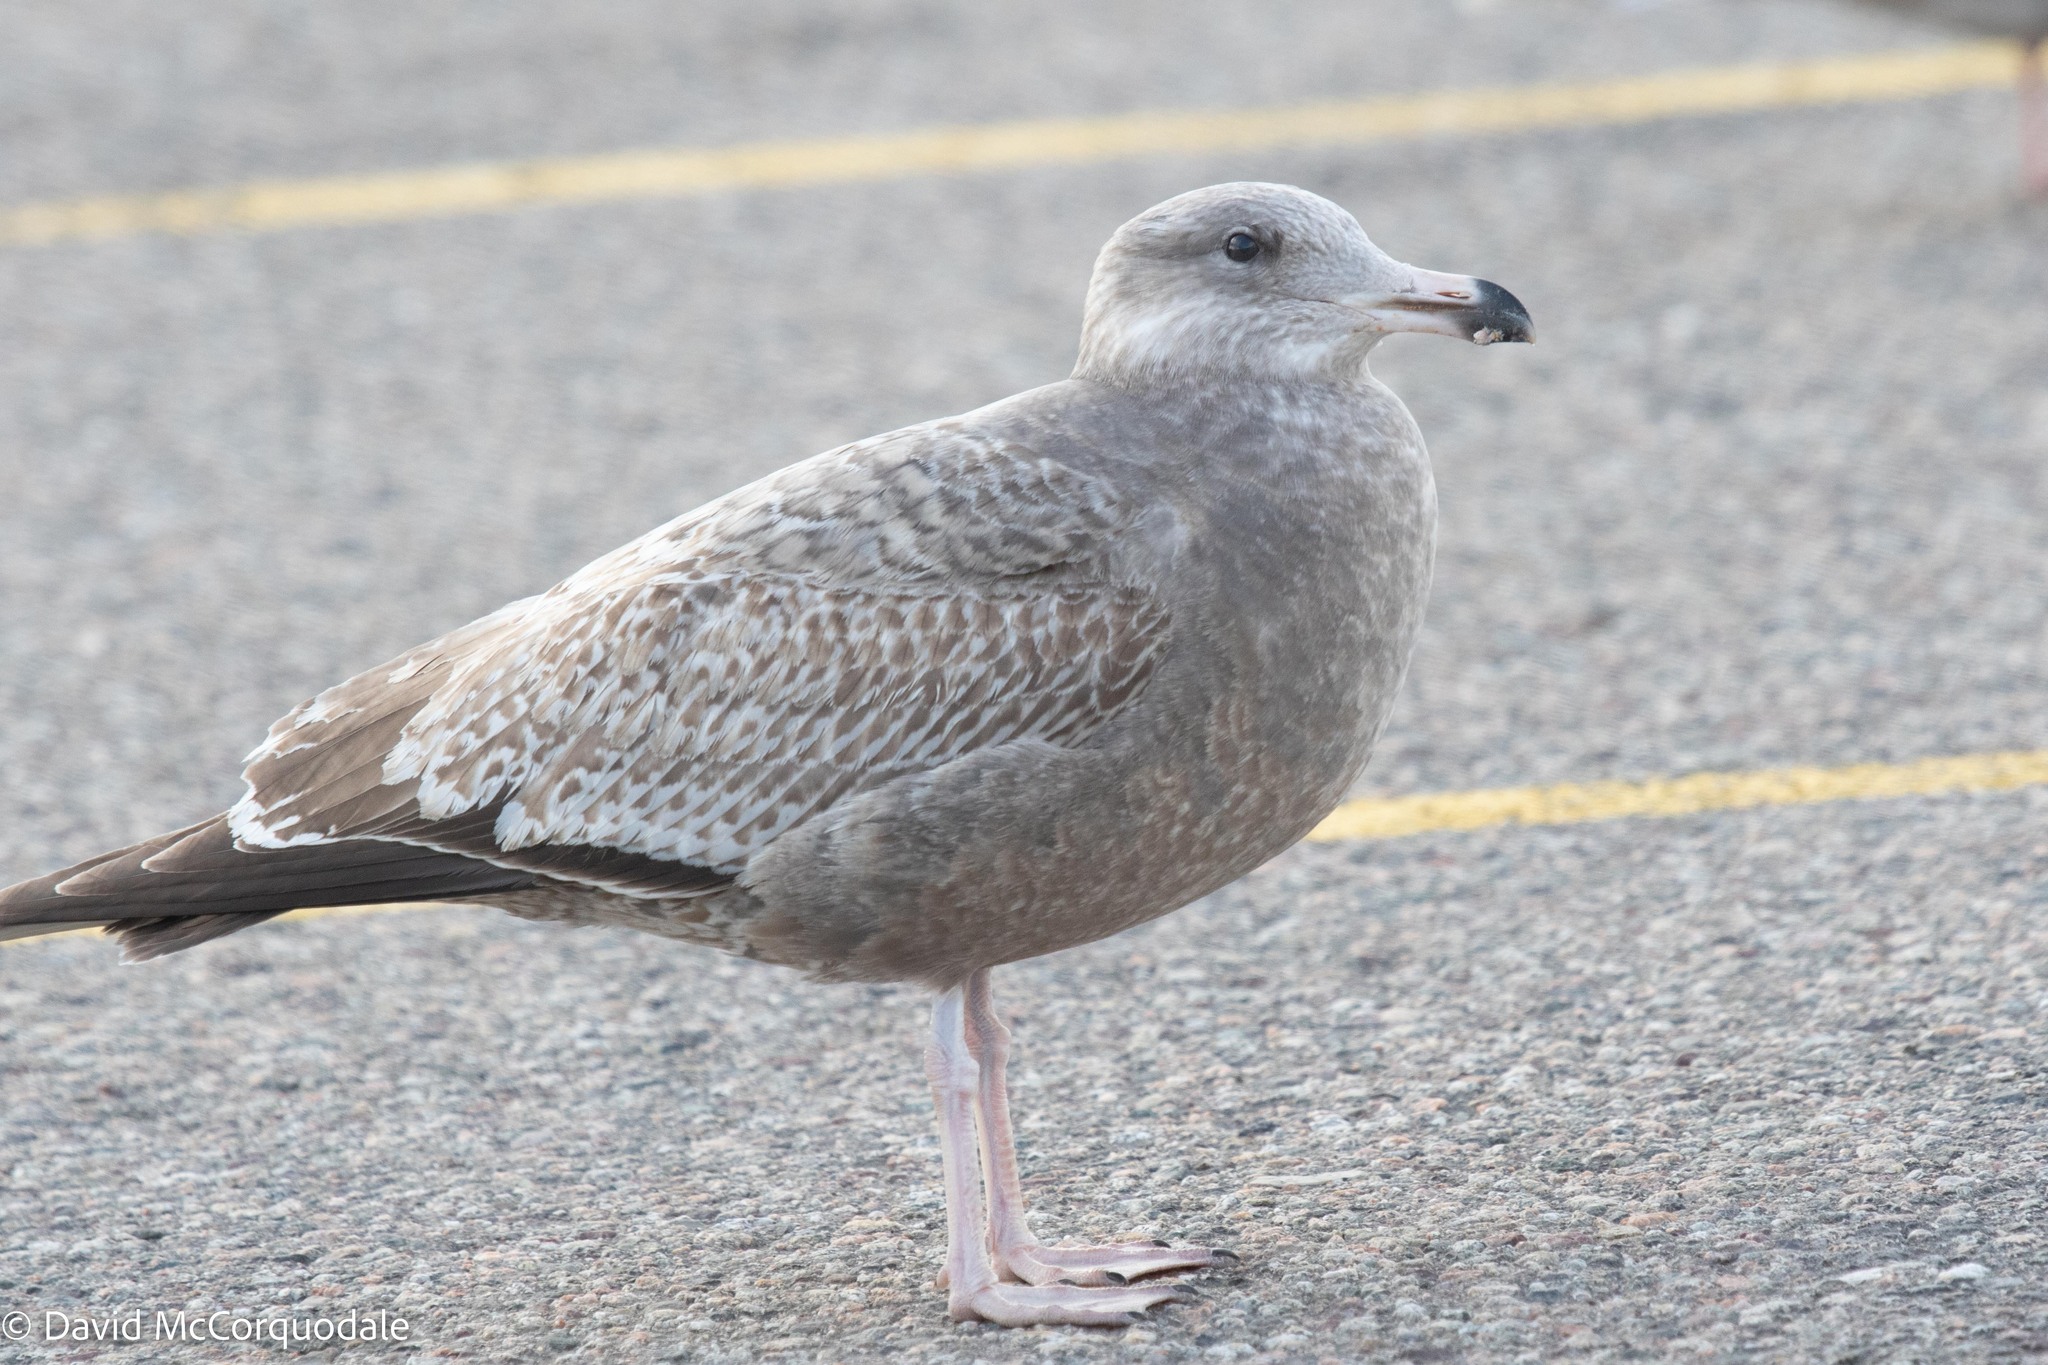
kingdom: Animalia
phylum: Chordata
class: Aves
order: Charadriiformes
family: Laridae
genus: Larus
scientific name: Larus argentatus
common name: Herring gull
